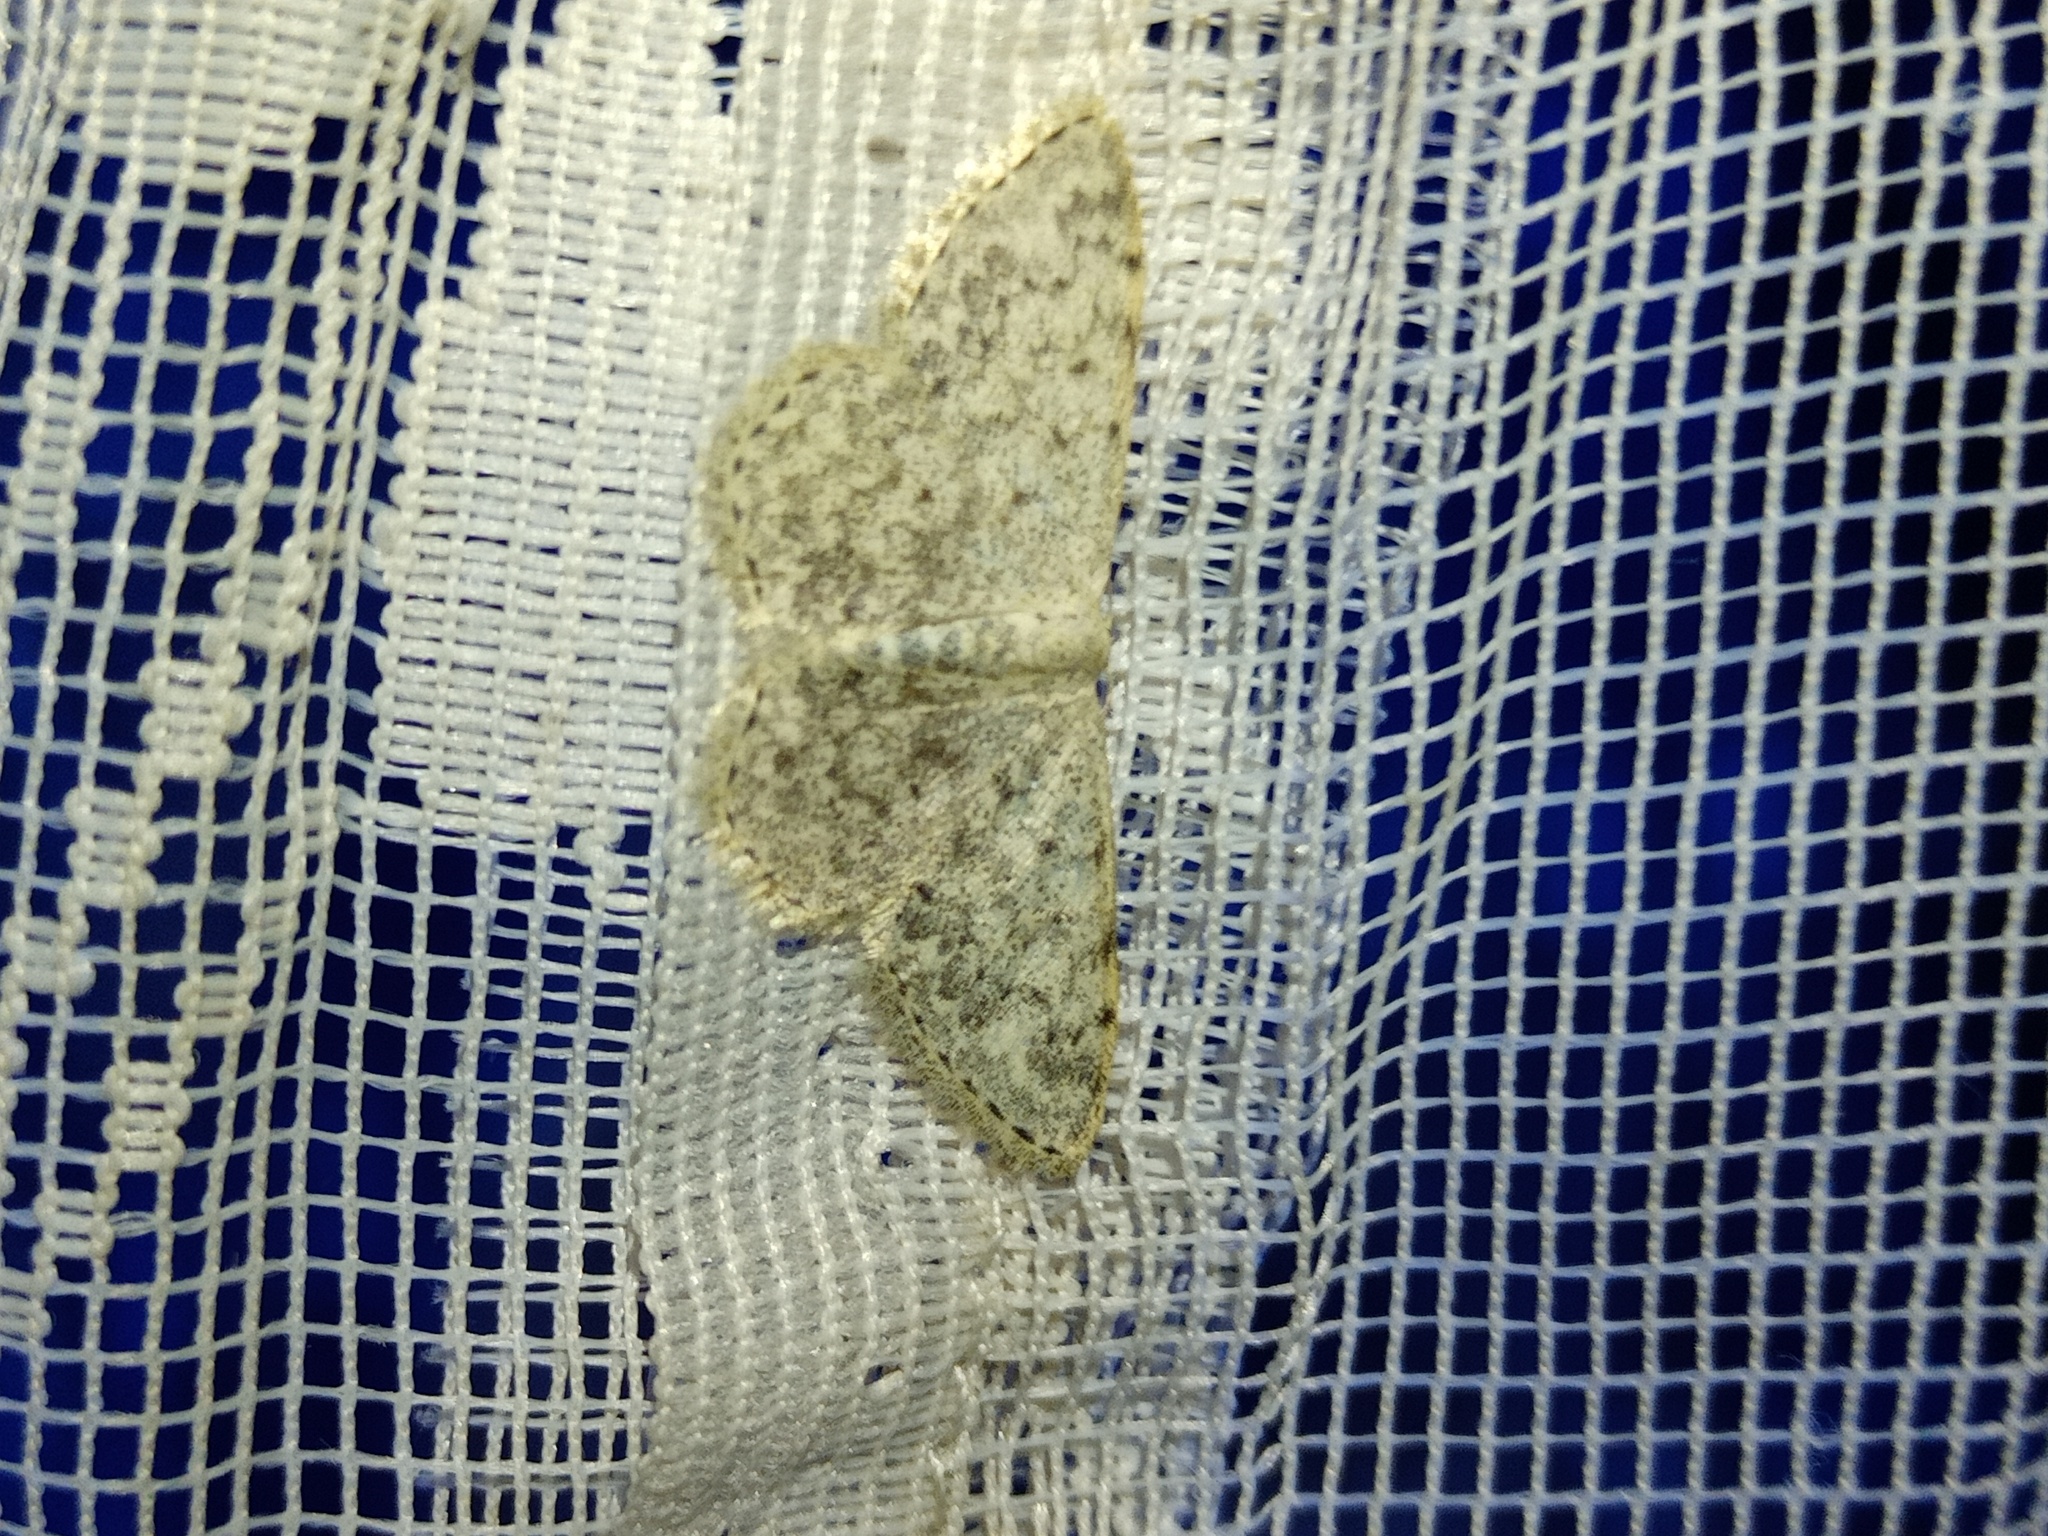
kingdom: Animalia
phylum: Arthropoda
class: Insecta
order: Lepidoptera
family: Geometridae
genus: Scopula
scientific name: Scopula marginepunctata
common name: Mullein wave
